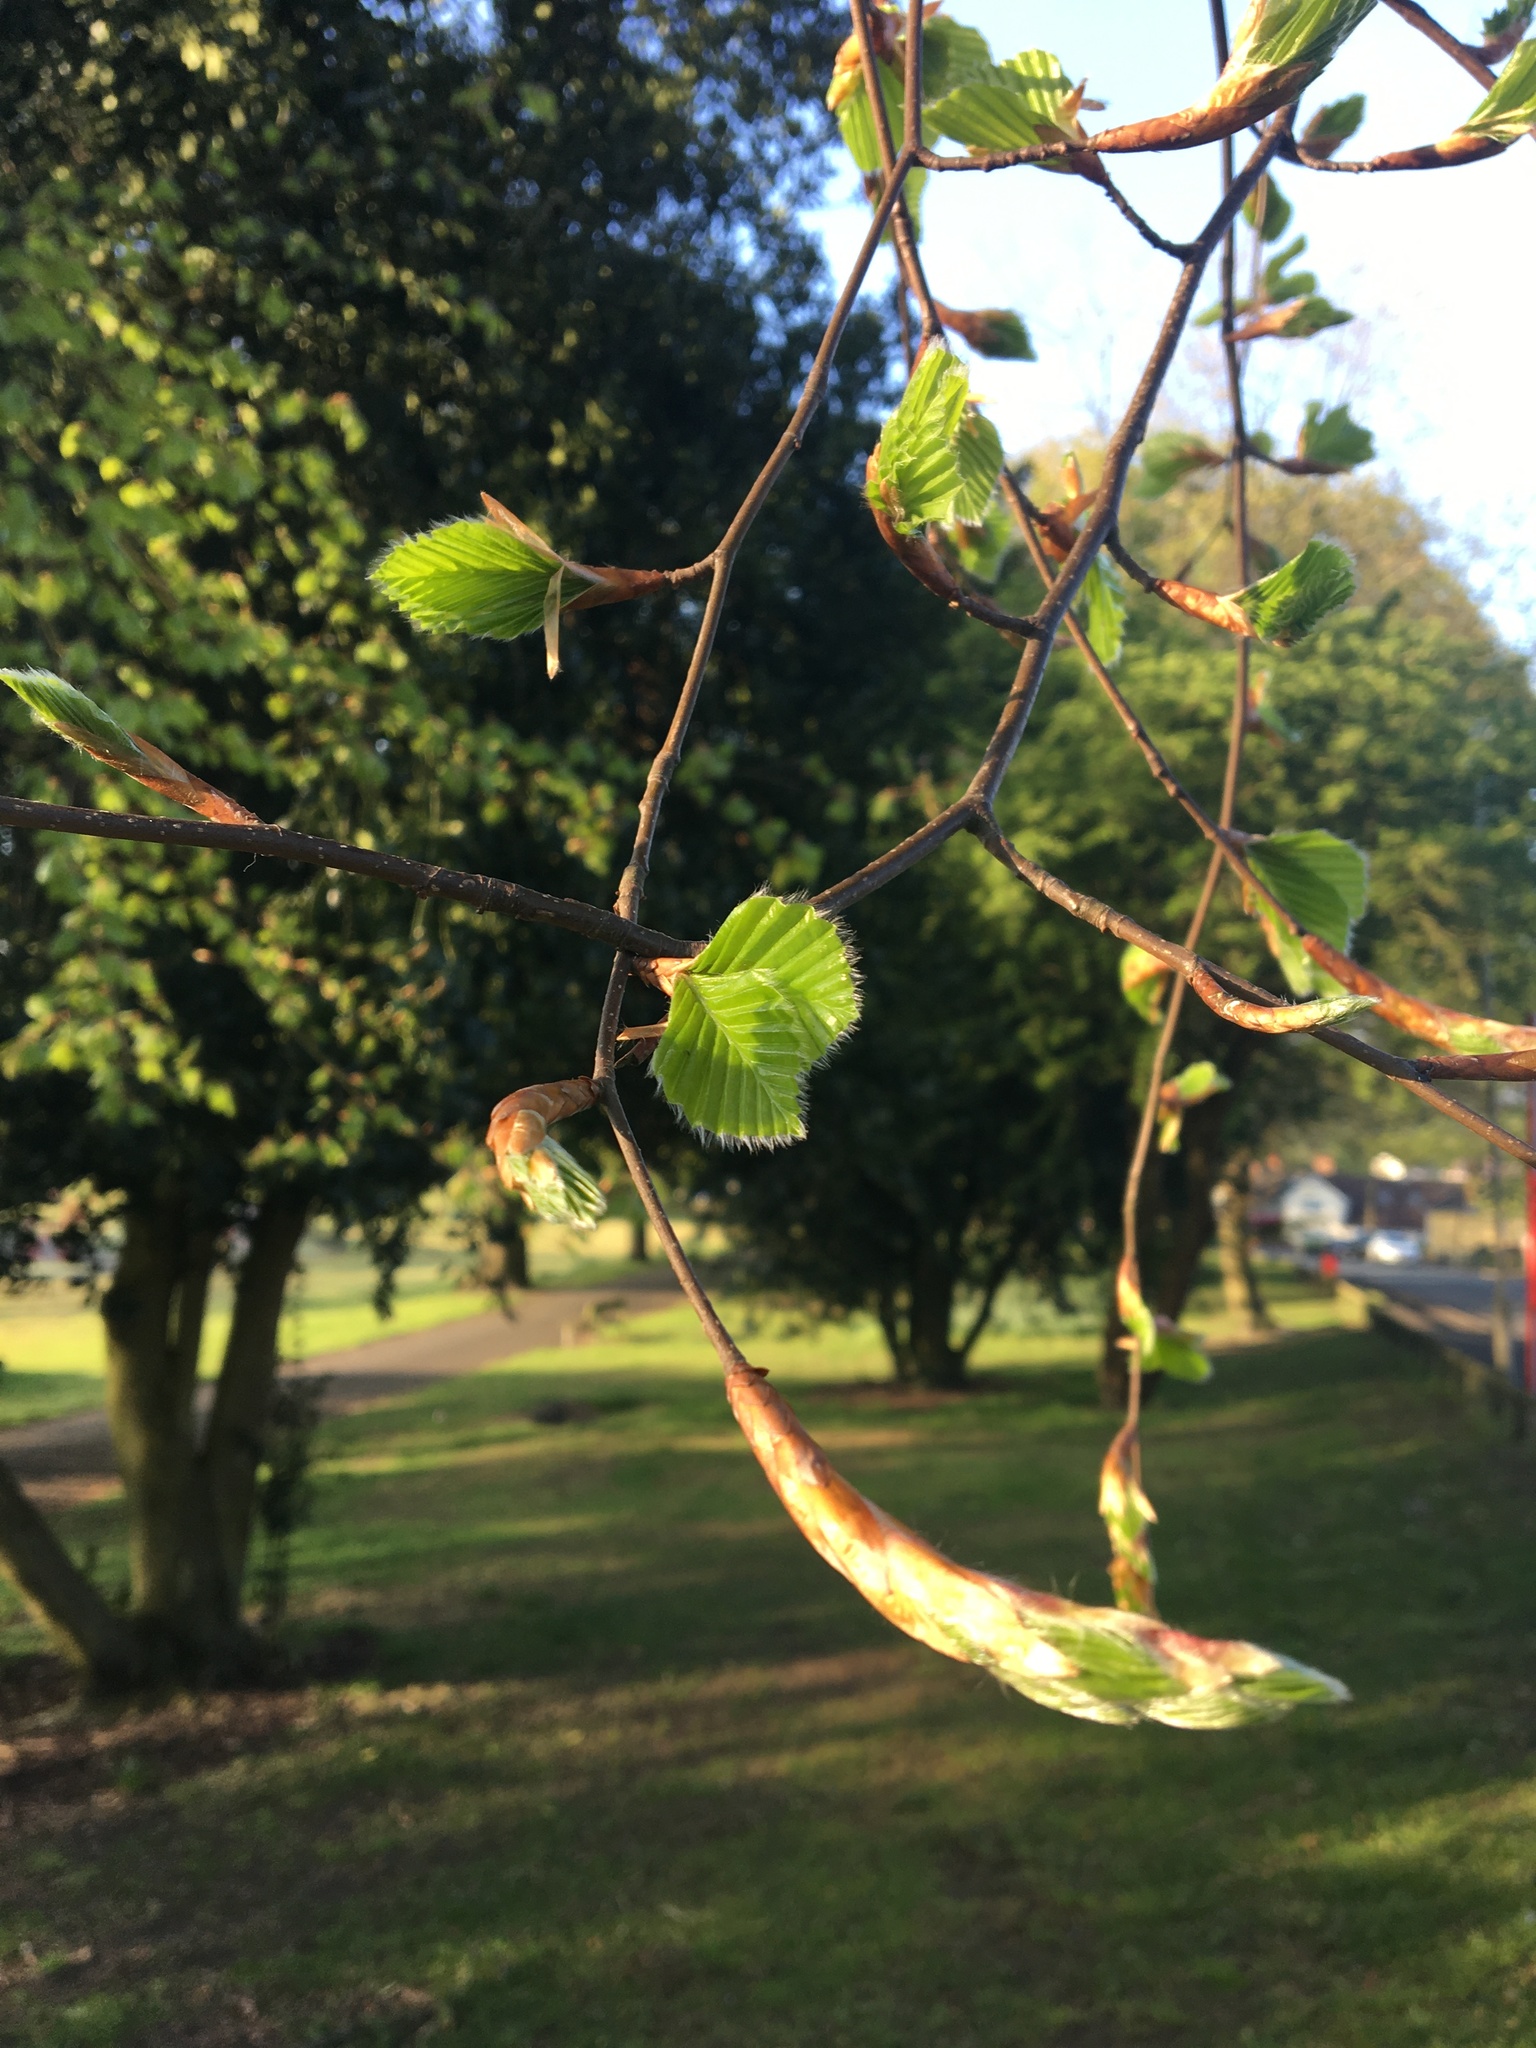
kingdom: Plantae
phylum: Tracheophyta
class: Magnoliopsida
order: Fagales
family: Fagaceae
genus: Fagus
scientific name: Fagus sylvatica
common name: Beech
